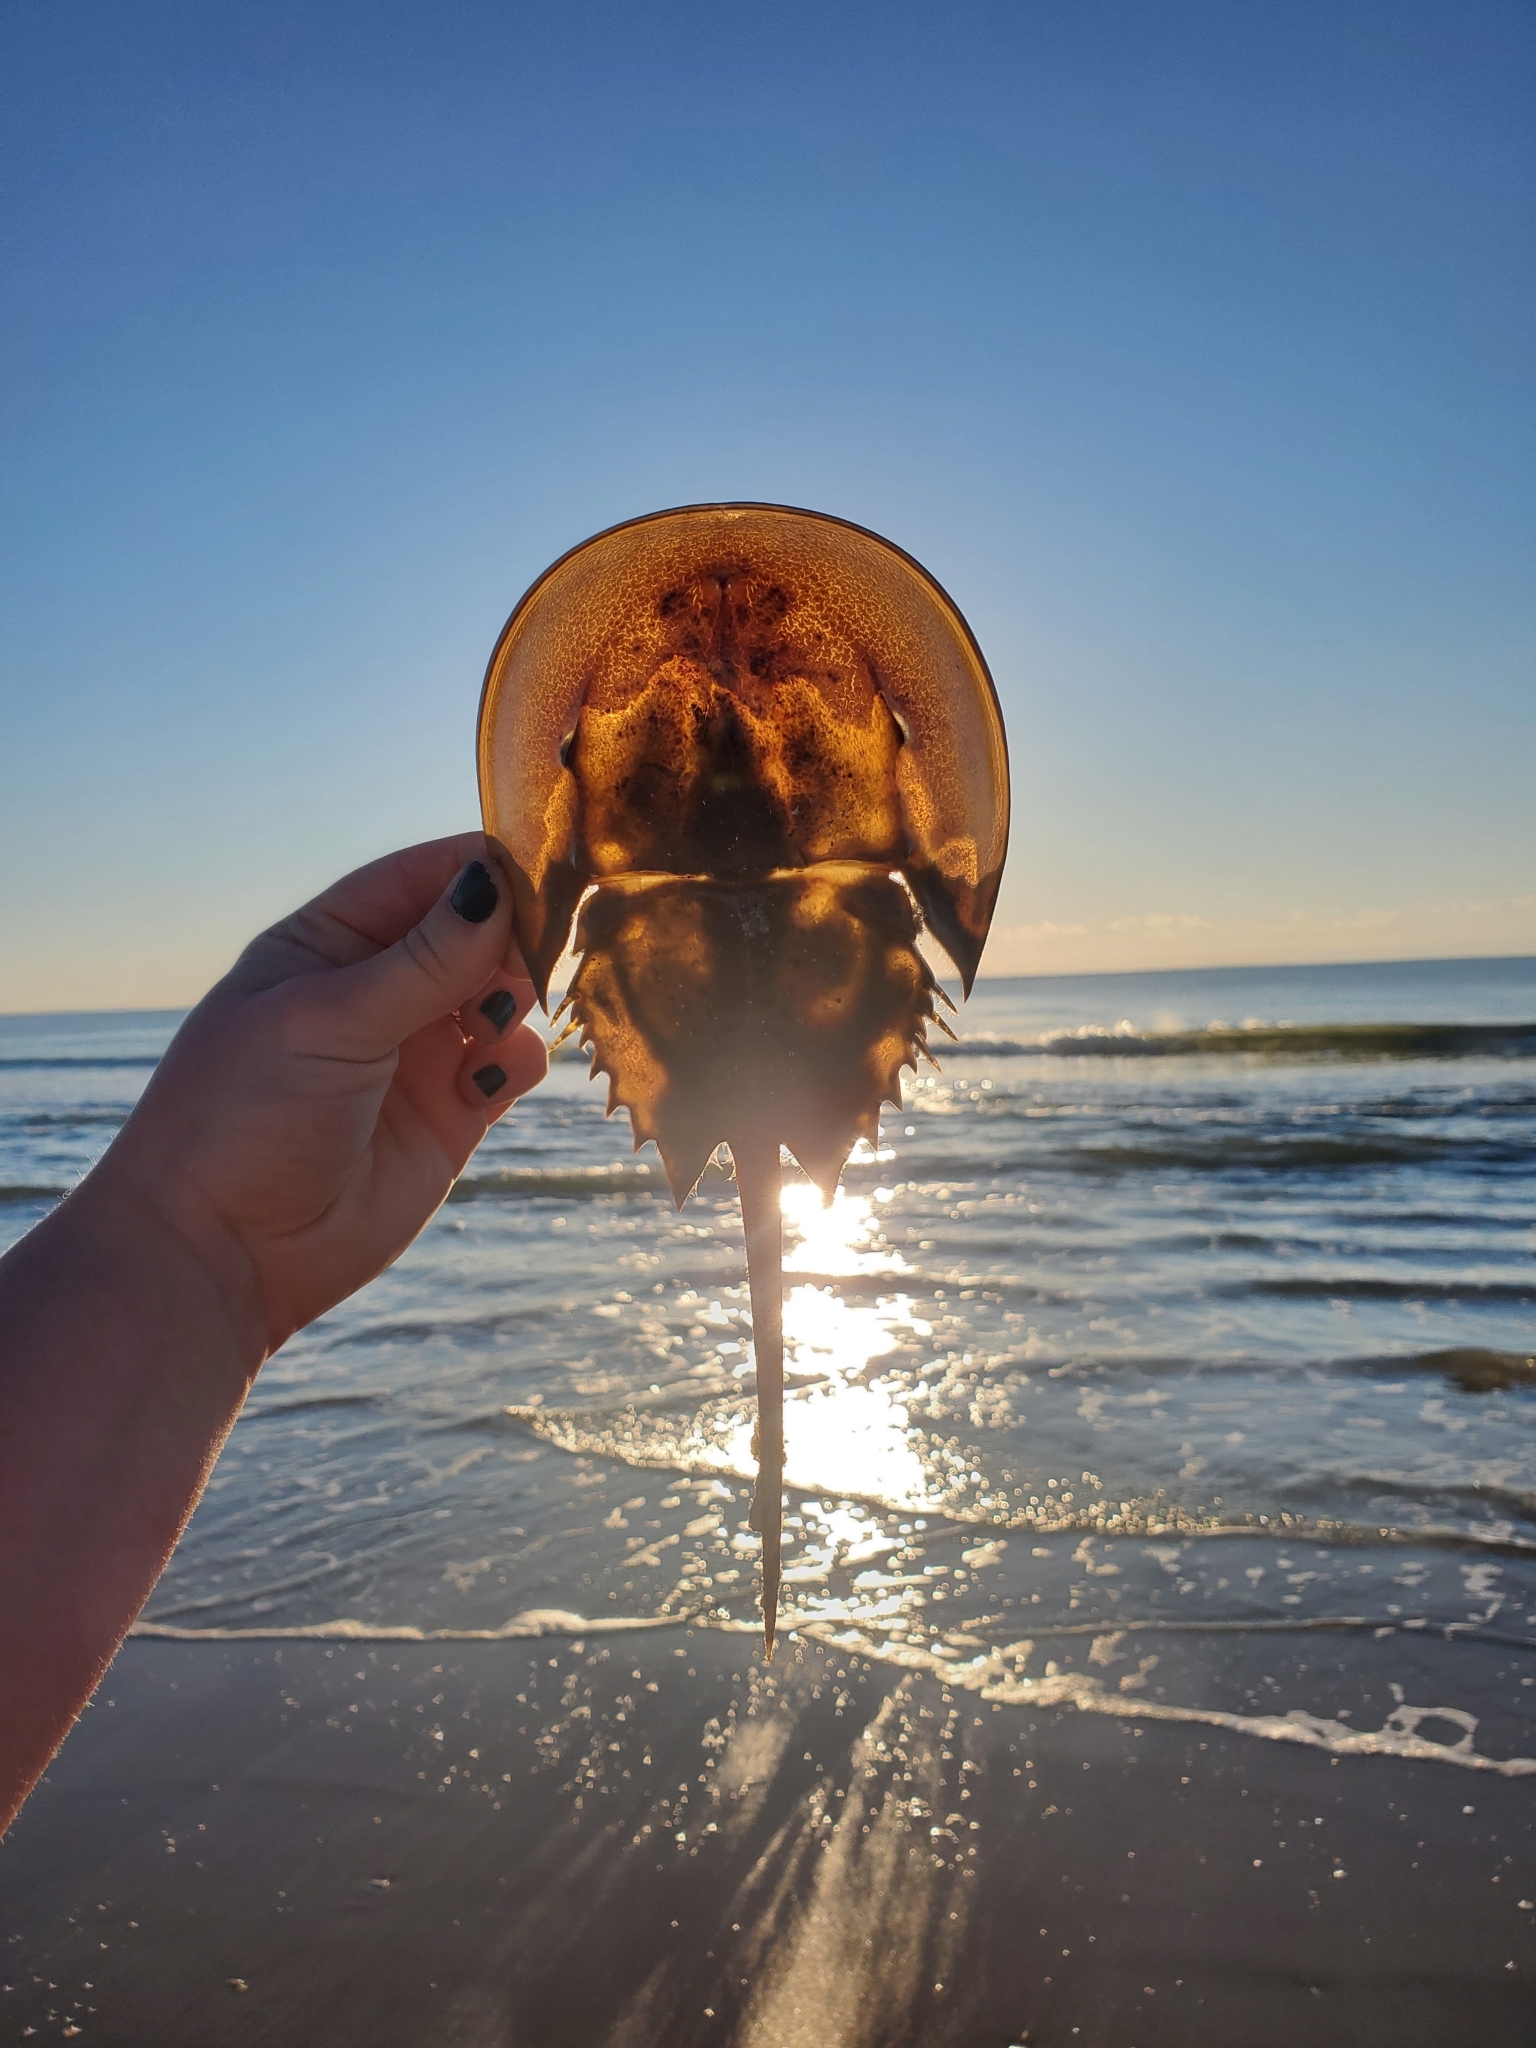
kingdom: Animalia
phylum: Arthropoda
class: Merostomata
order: Xiphosurida
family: Limulidae
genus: Limulus
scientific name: Limulus polyphemus
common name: Horseshoe crab
